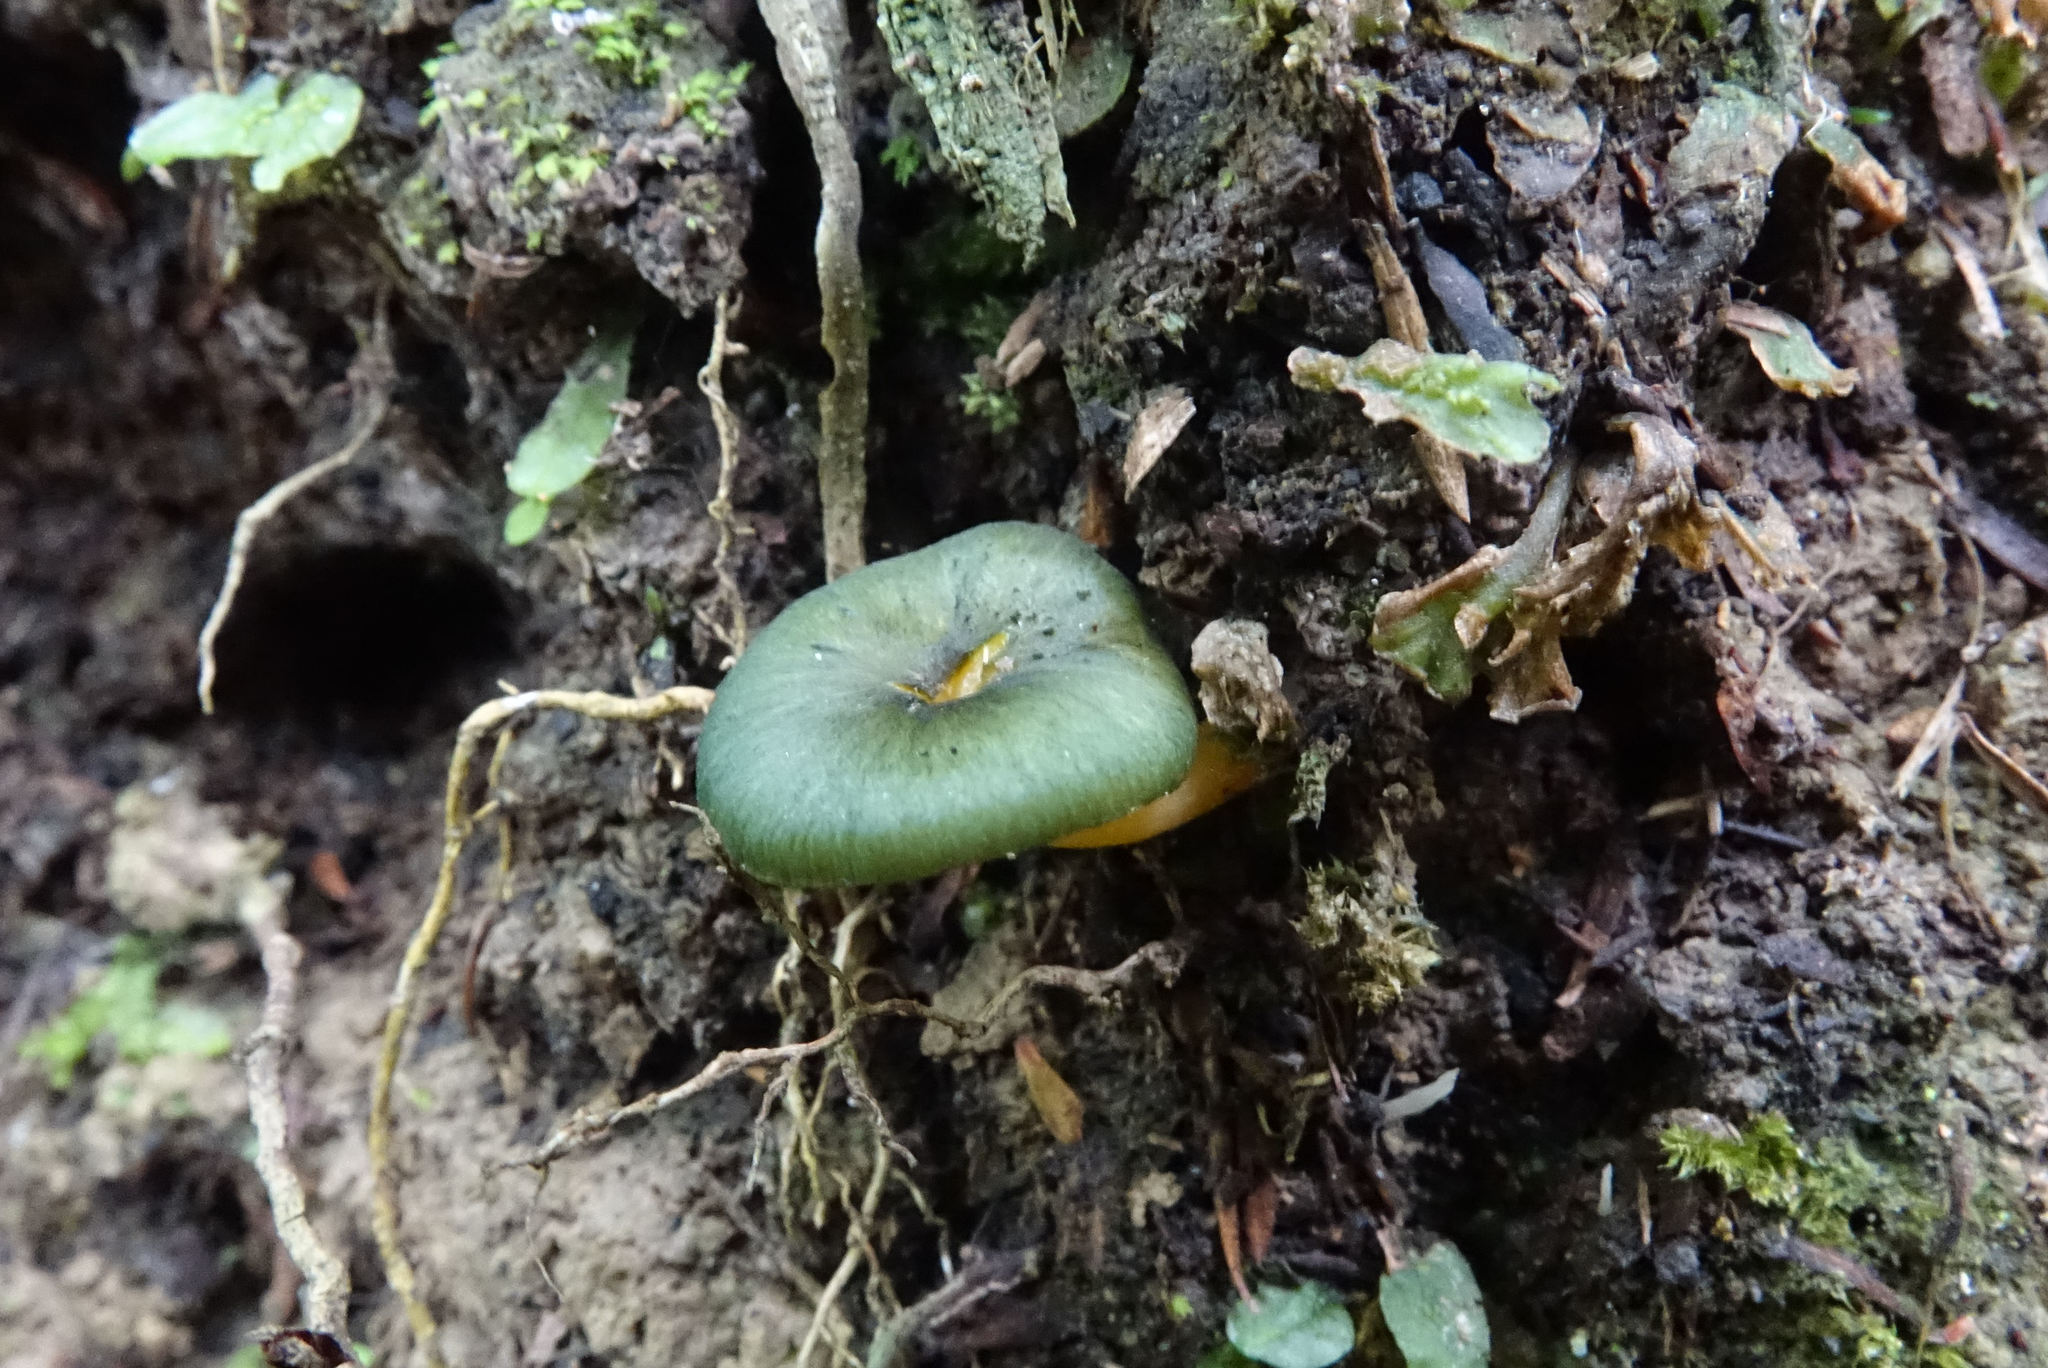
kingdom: Fungi
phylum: Basidiomycota
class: Agaricomycetes
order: Agaricales
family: Entolomataceae
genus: Entoloma
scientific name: Entoloma chloroxanthum
